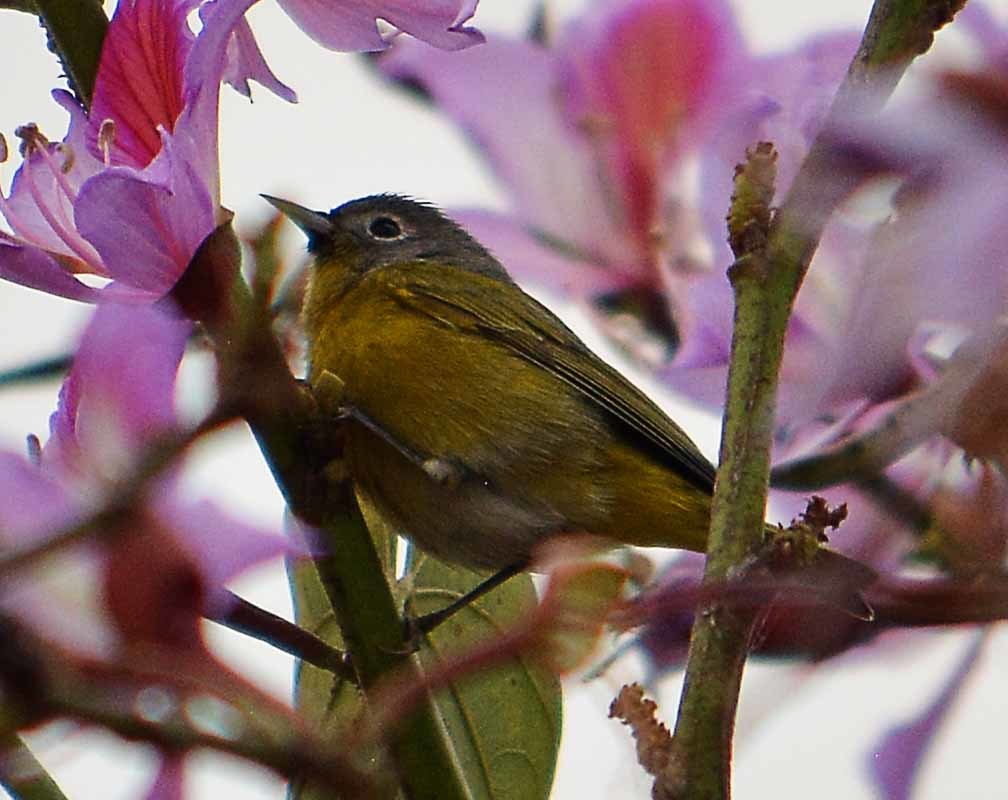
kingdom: Animalia
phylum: Chordata
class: Aves
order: Passeriformes
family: Parulidae
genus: Leiothlypis
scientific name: Leiothlypis ruficapilla
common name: Nashville warbler
